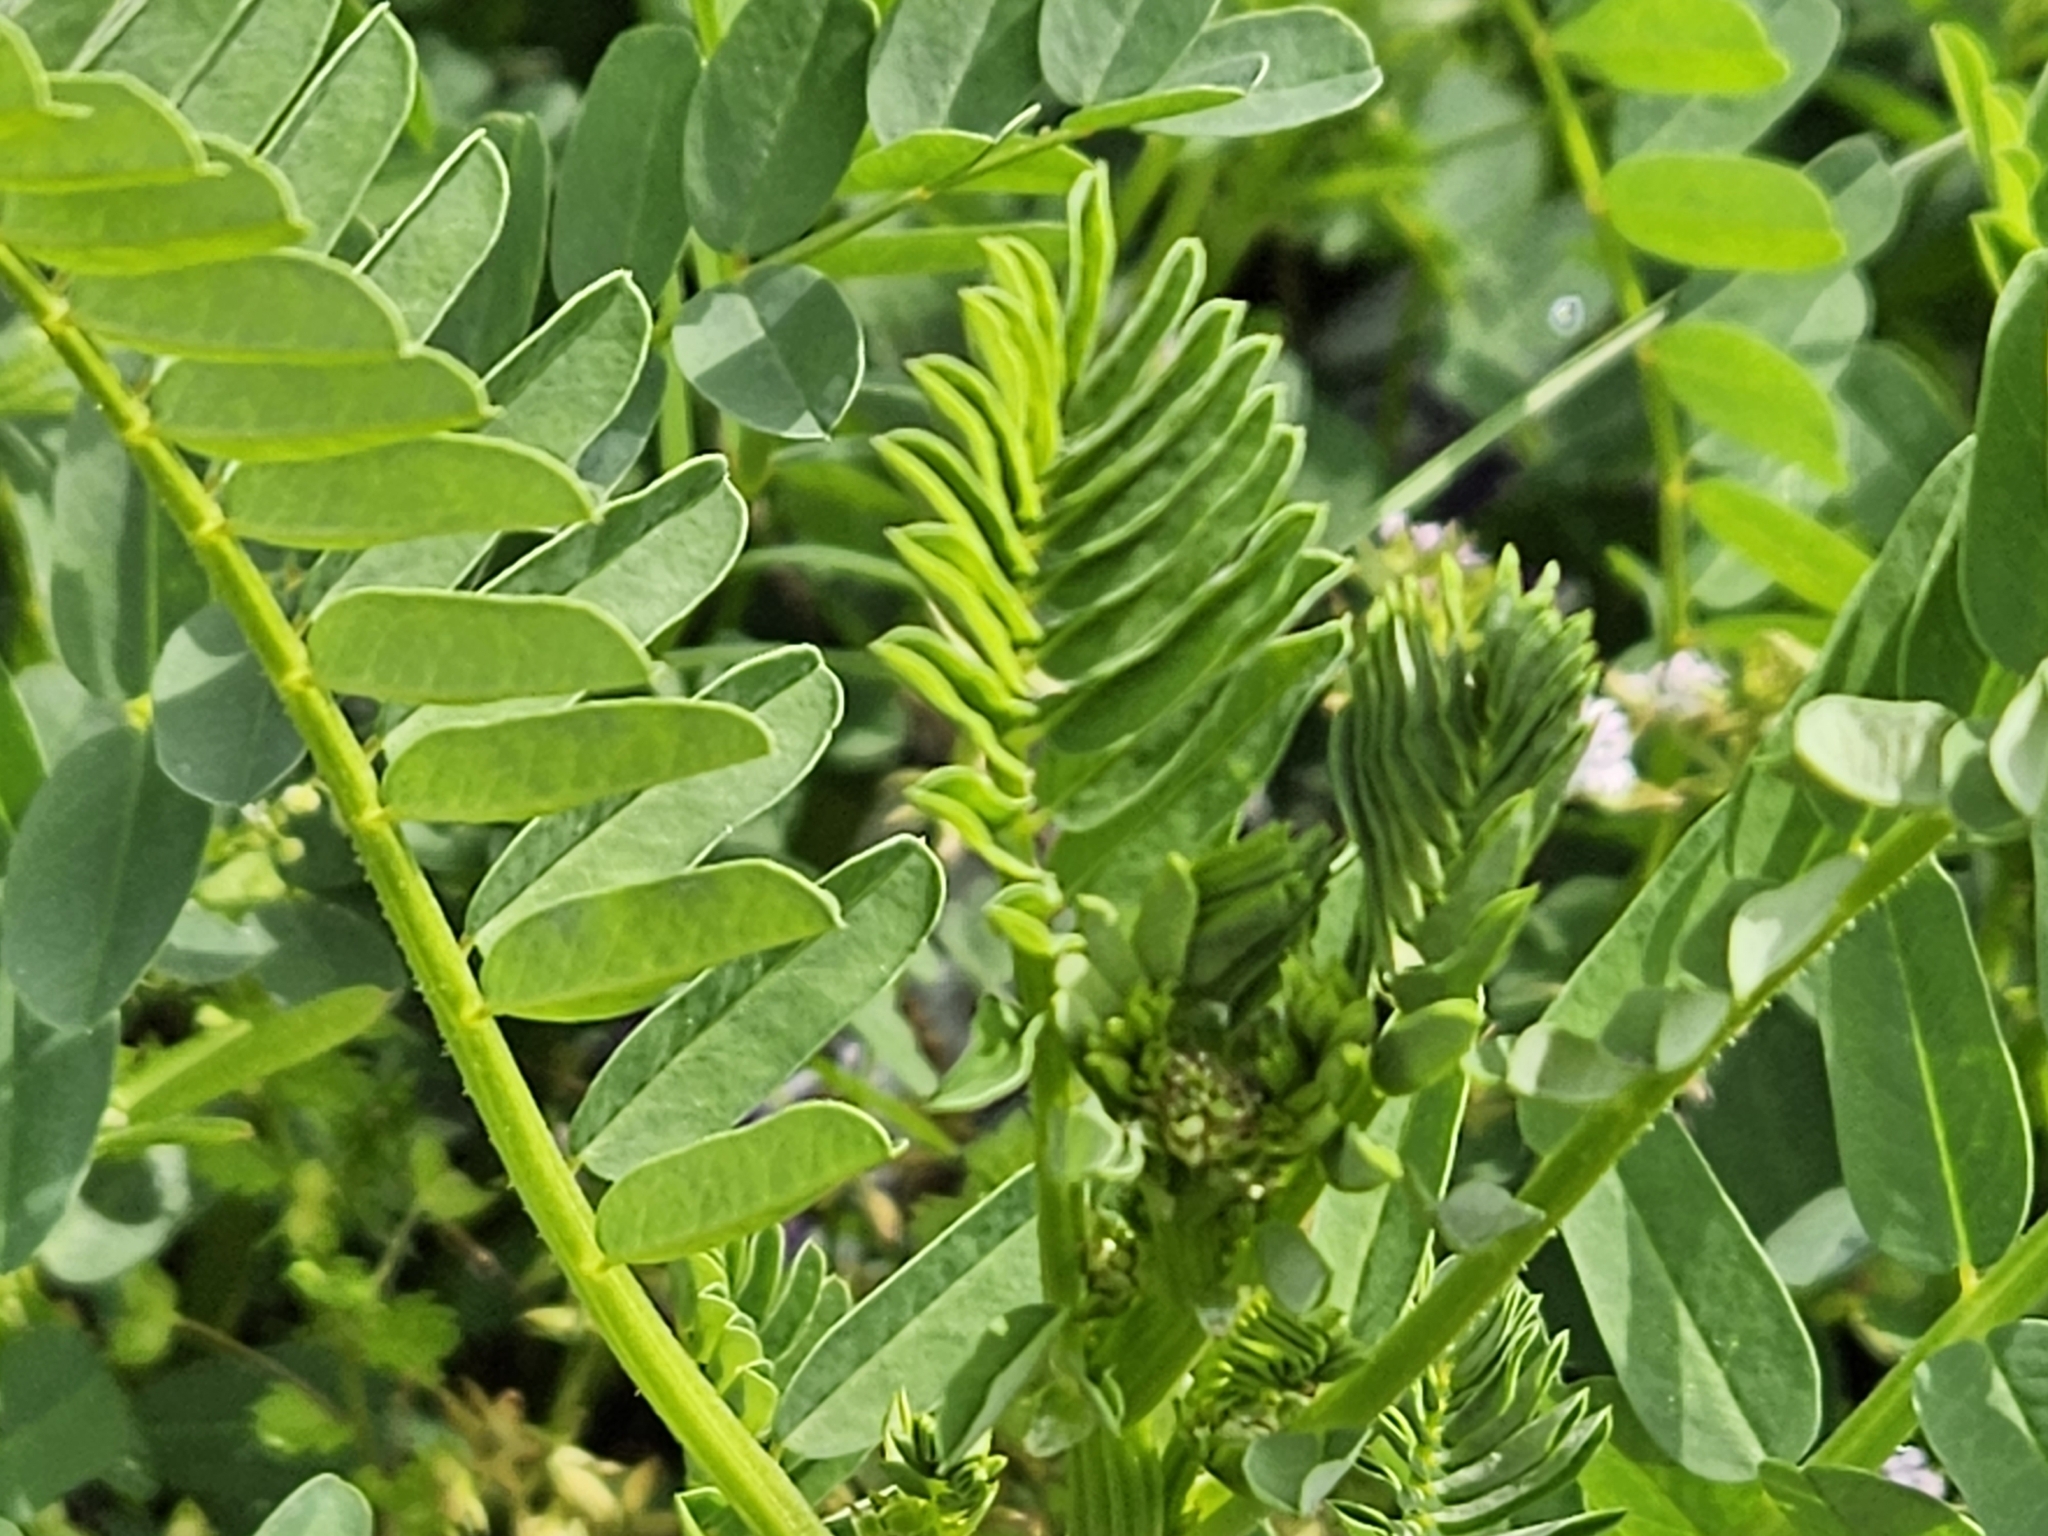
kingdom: Plantae
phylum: Tracheophyta
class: Magnoliopsida
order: Fabales
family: Fabaceae
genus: Coronilla
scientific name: Coronilla varia
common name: Crownvetch
